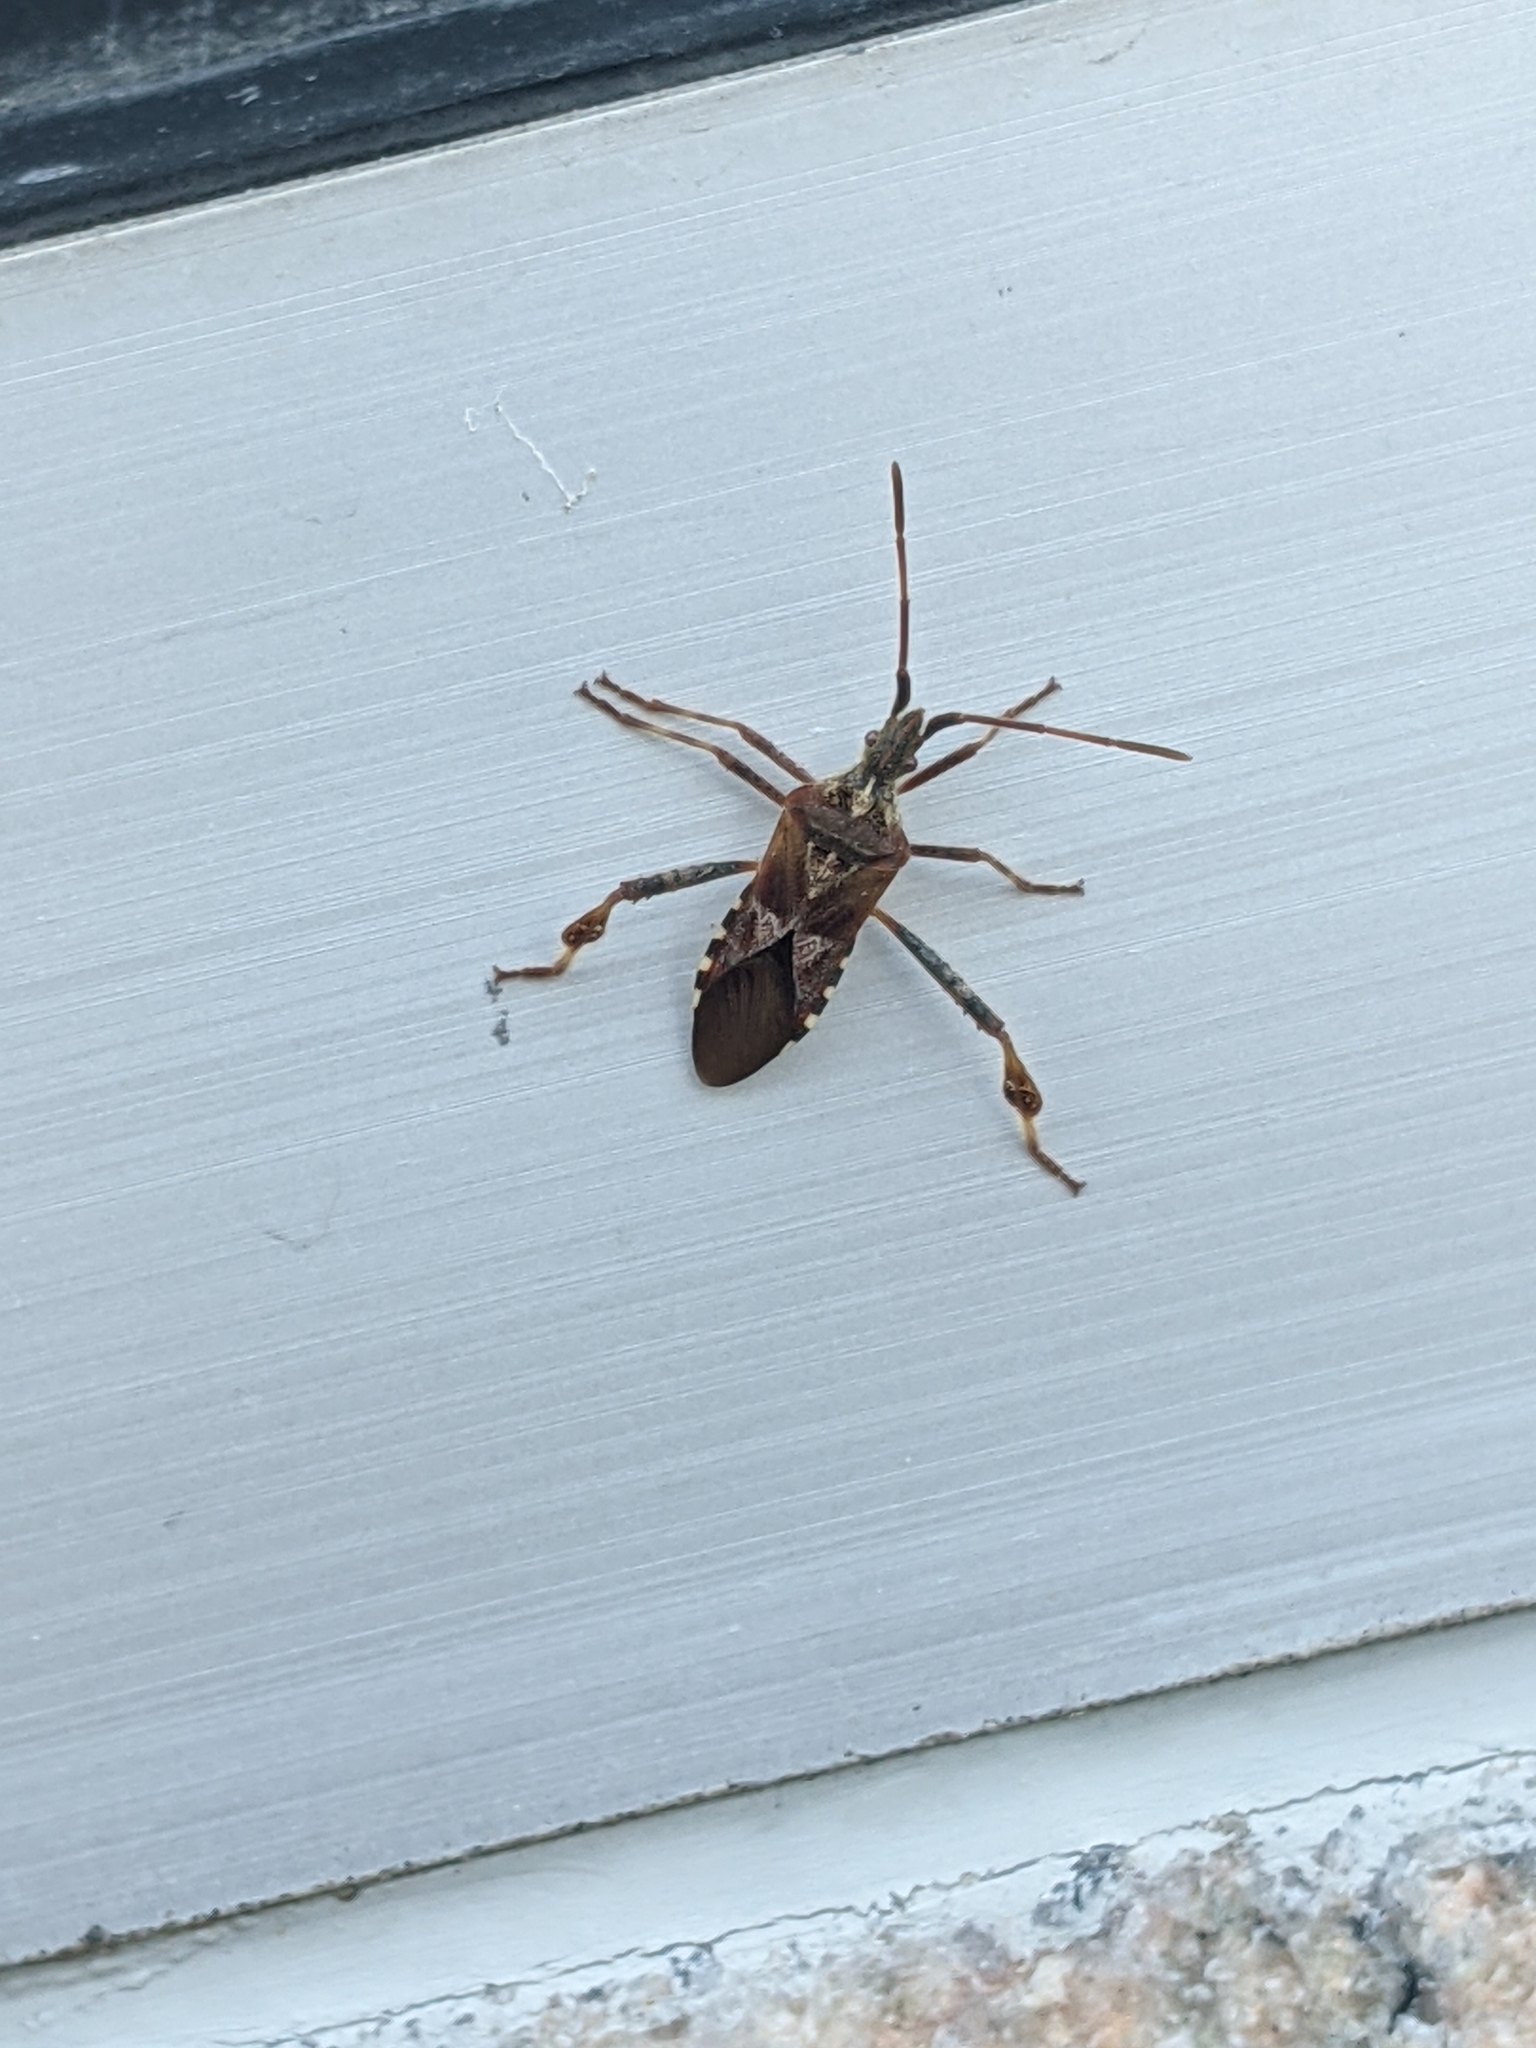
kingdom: Animalia
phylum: Arthropoda
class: Insecta
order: Hemiptera
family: Coreidae
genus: Leptoglossus
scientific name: Leptoglossus occidentalis
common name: Western conifer-seed bug
